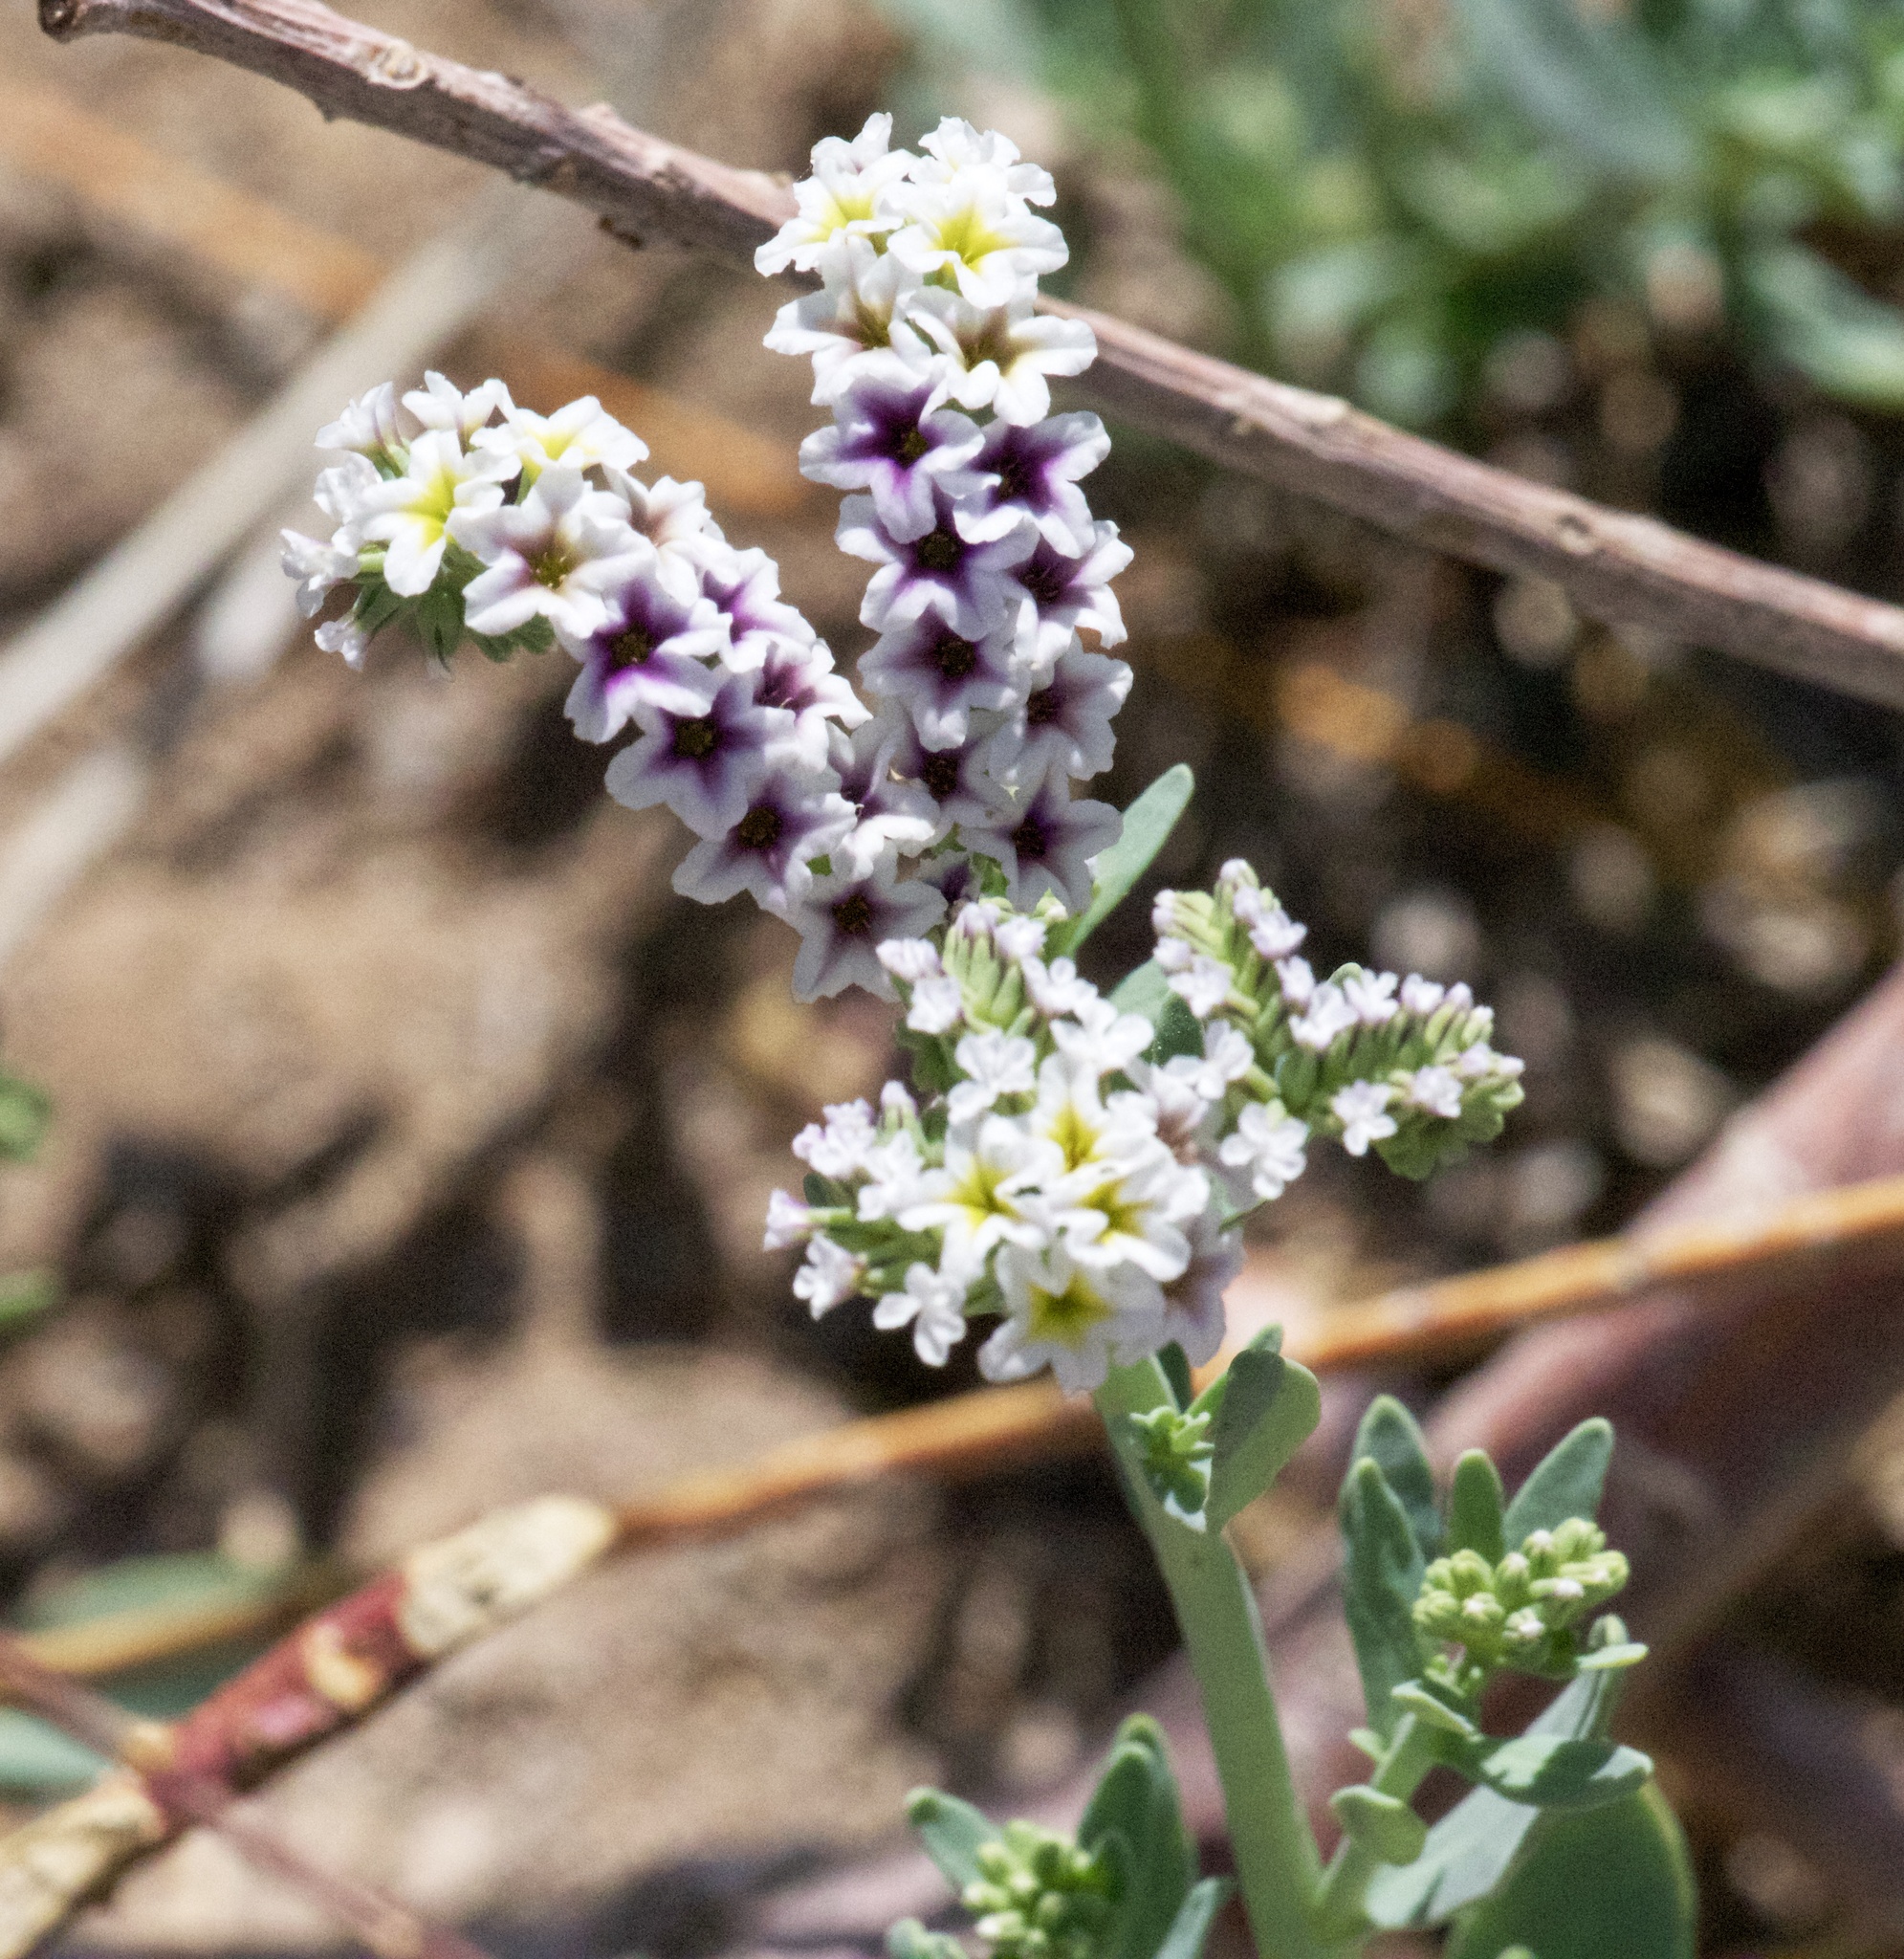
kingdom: Plantae
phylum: Tracheophyta
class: Magnoliopsida
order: Boraginales
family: Heliotropiaceae
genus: Heliotropium
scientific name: Heliotropium curassavicum
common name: Seaside heliotrope
